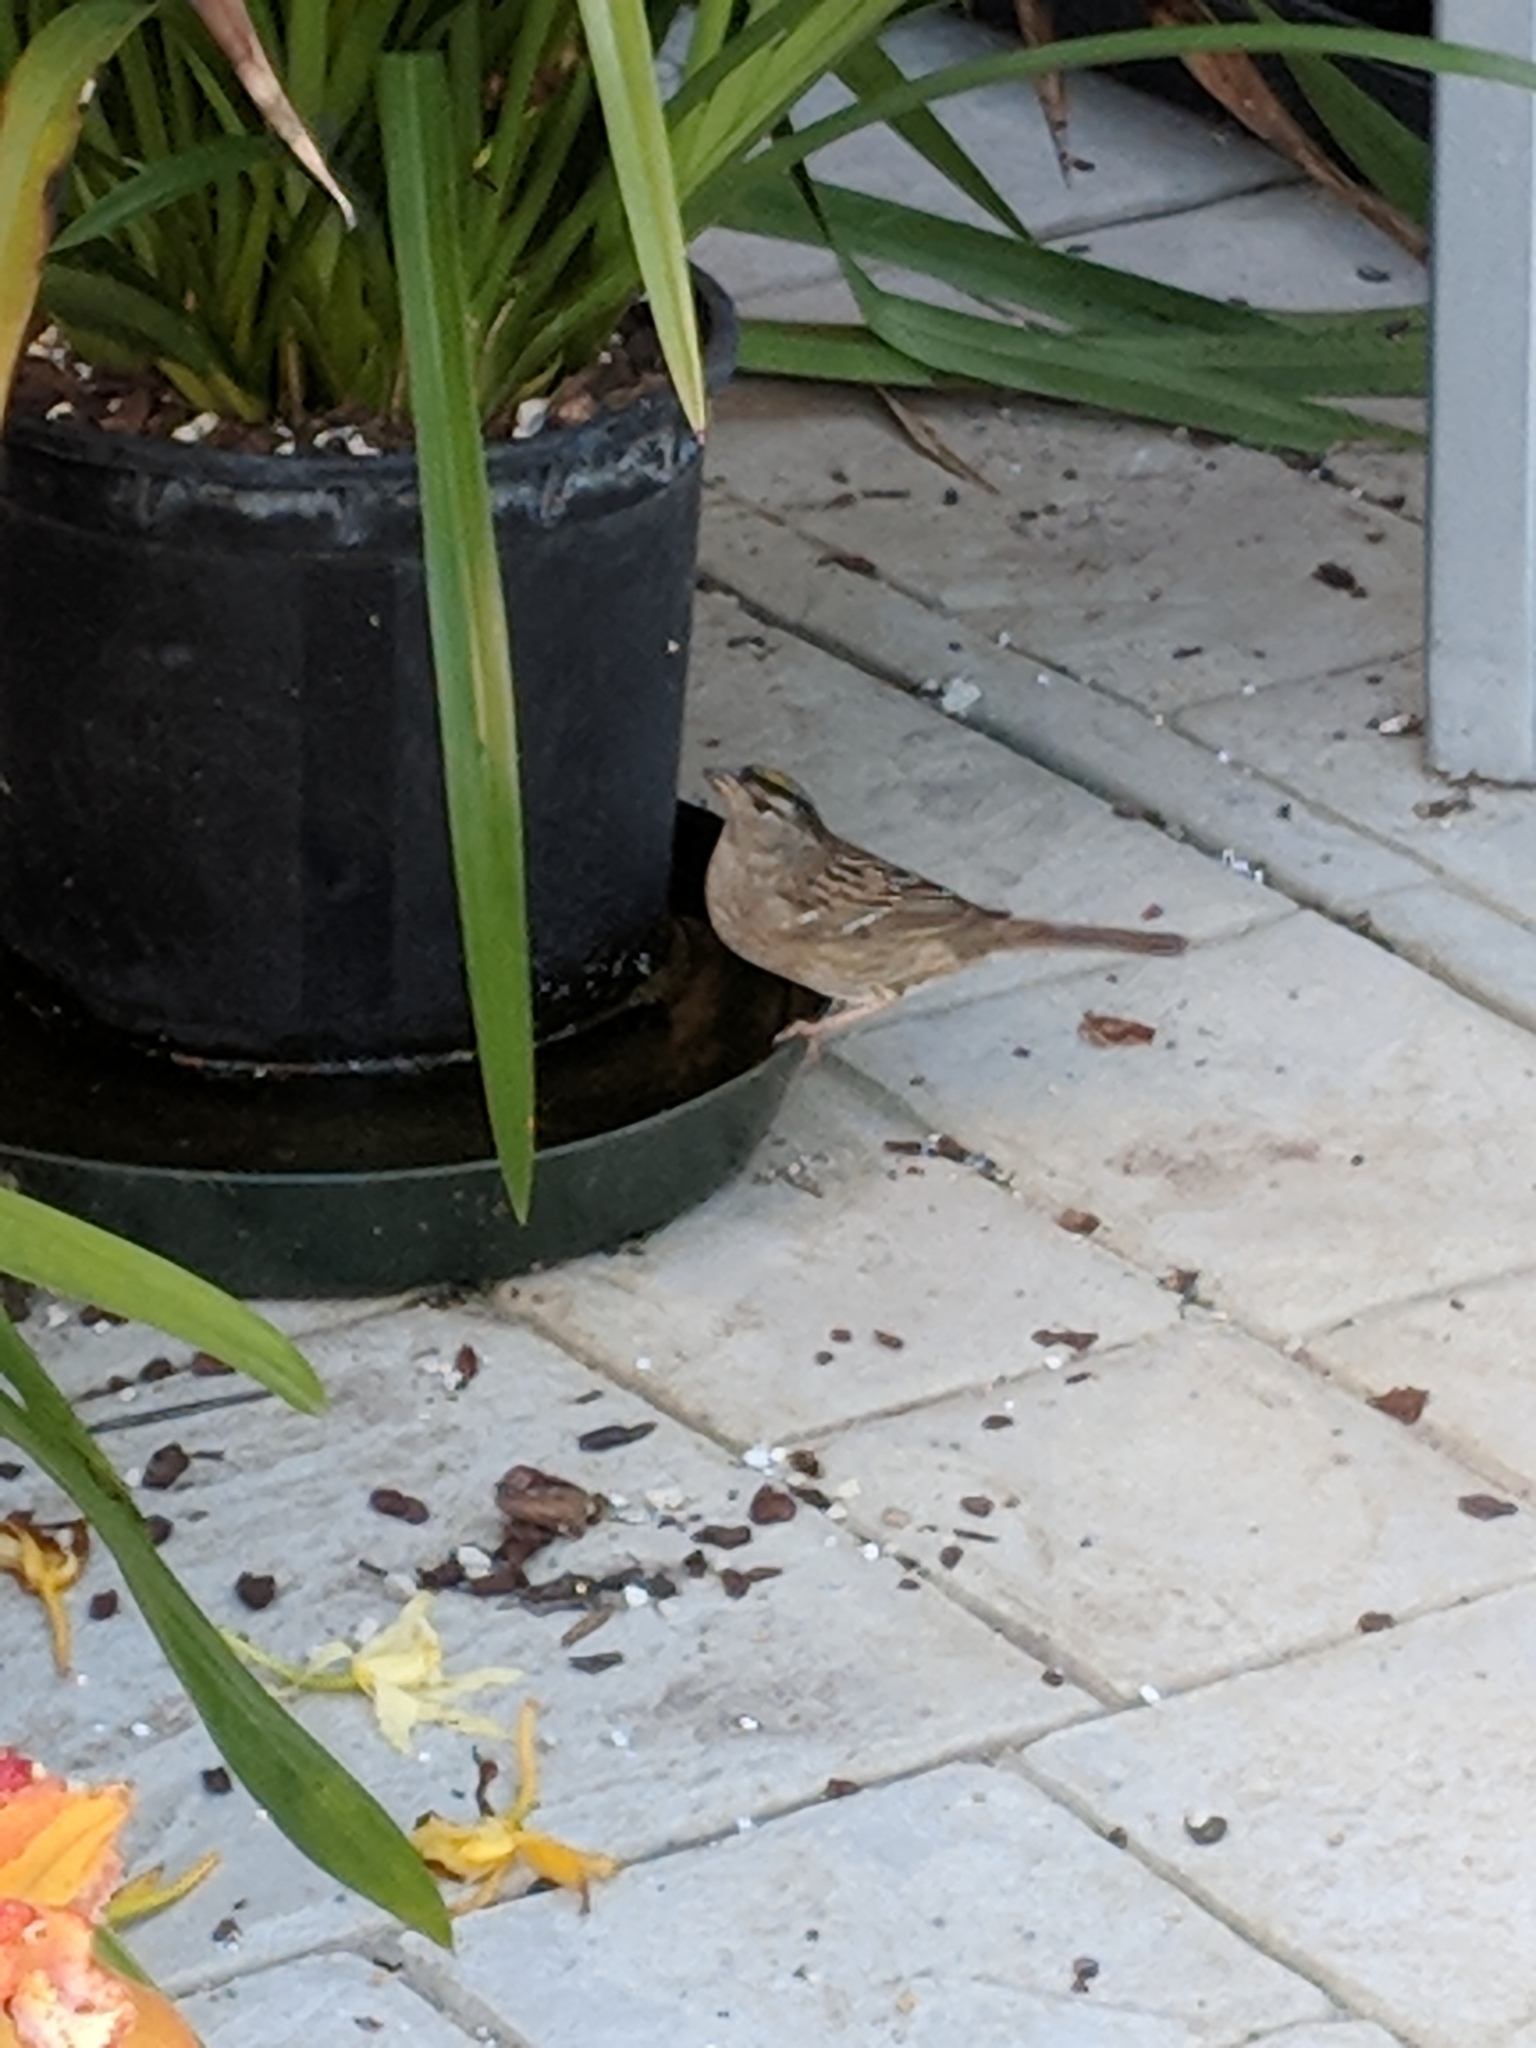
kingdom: Animalia
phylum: Chordata
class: Aves
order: Passeriformes
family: Passerellidae
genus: Zonotrichia
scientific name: Zonotrichia atricapilla
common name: Golden-crowned sparrow
